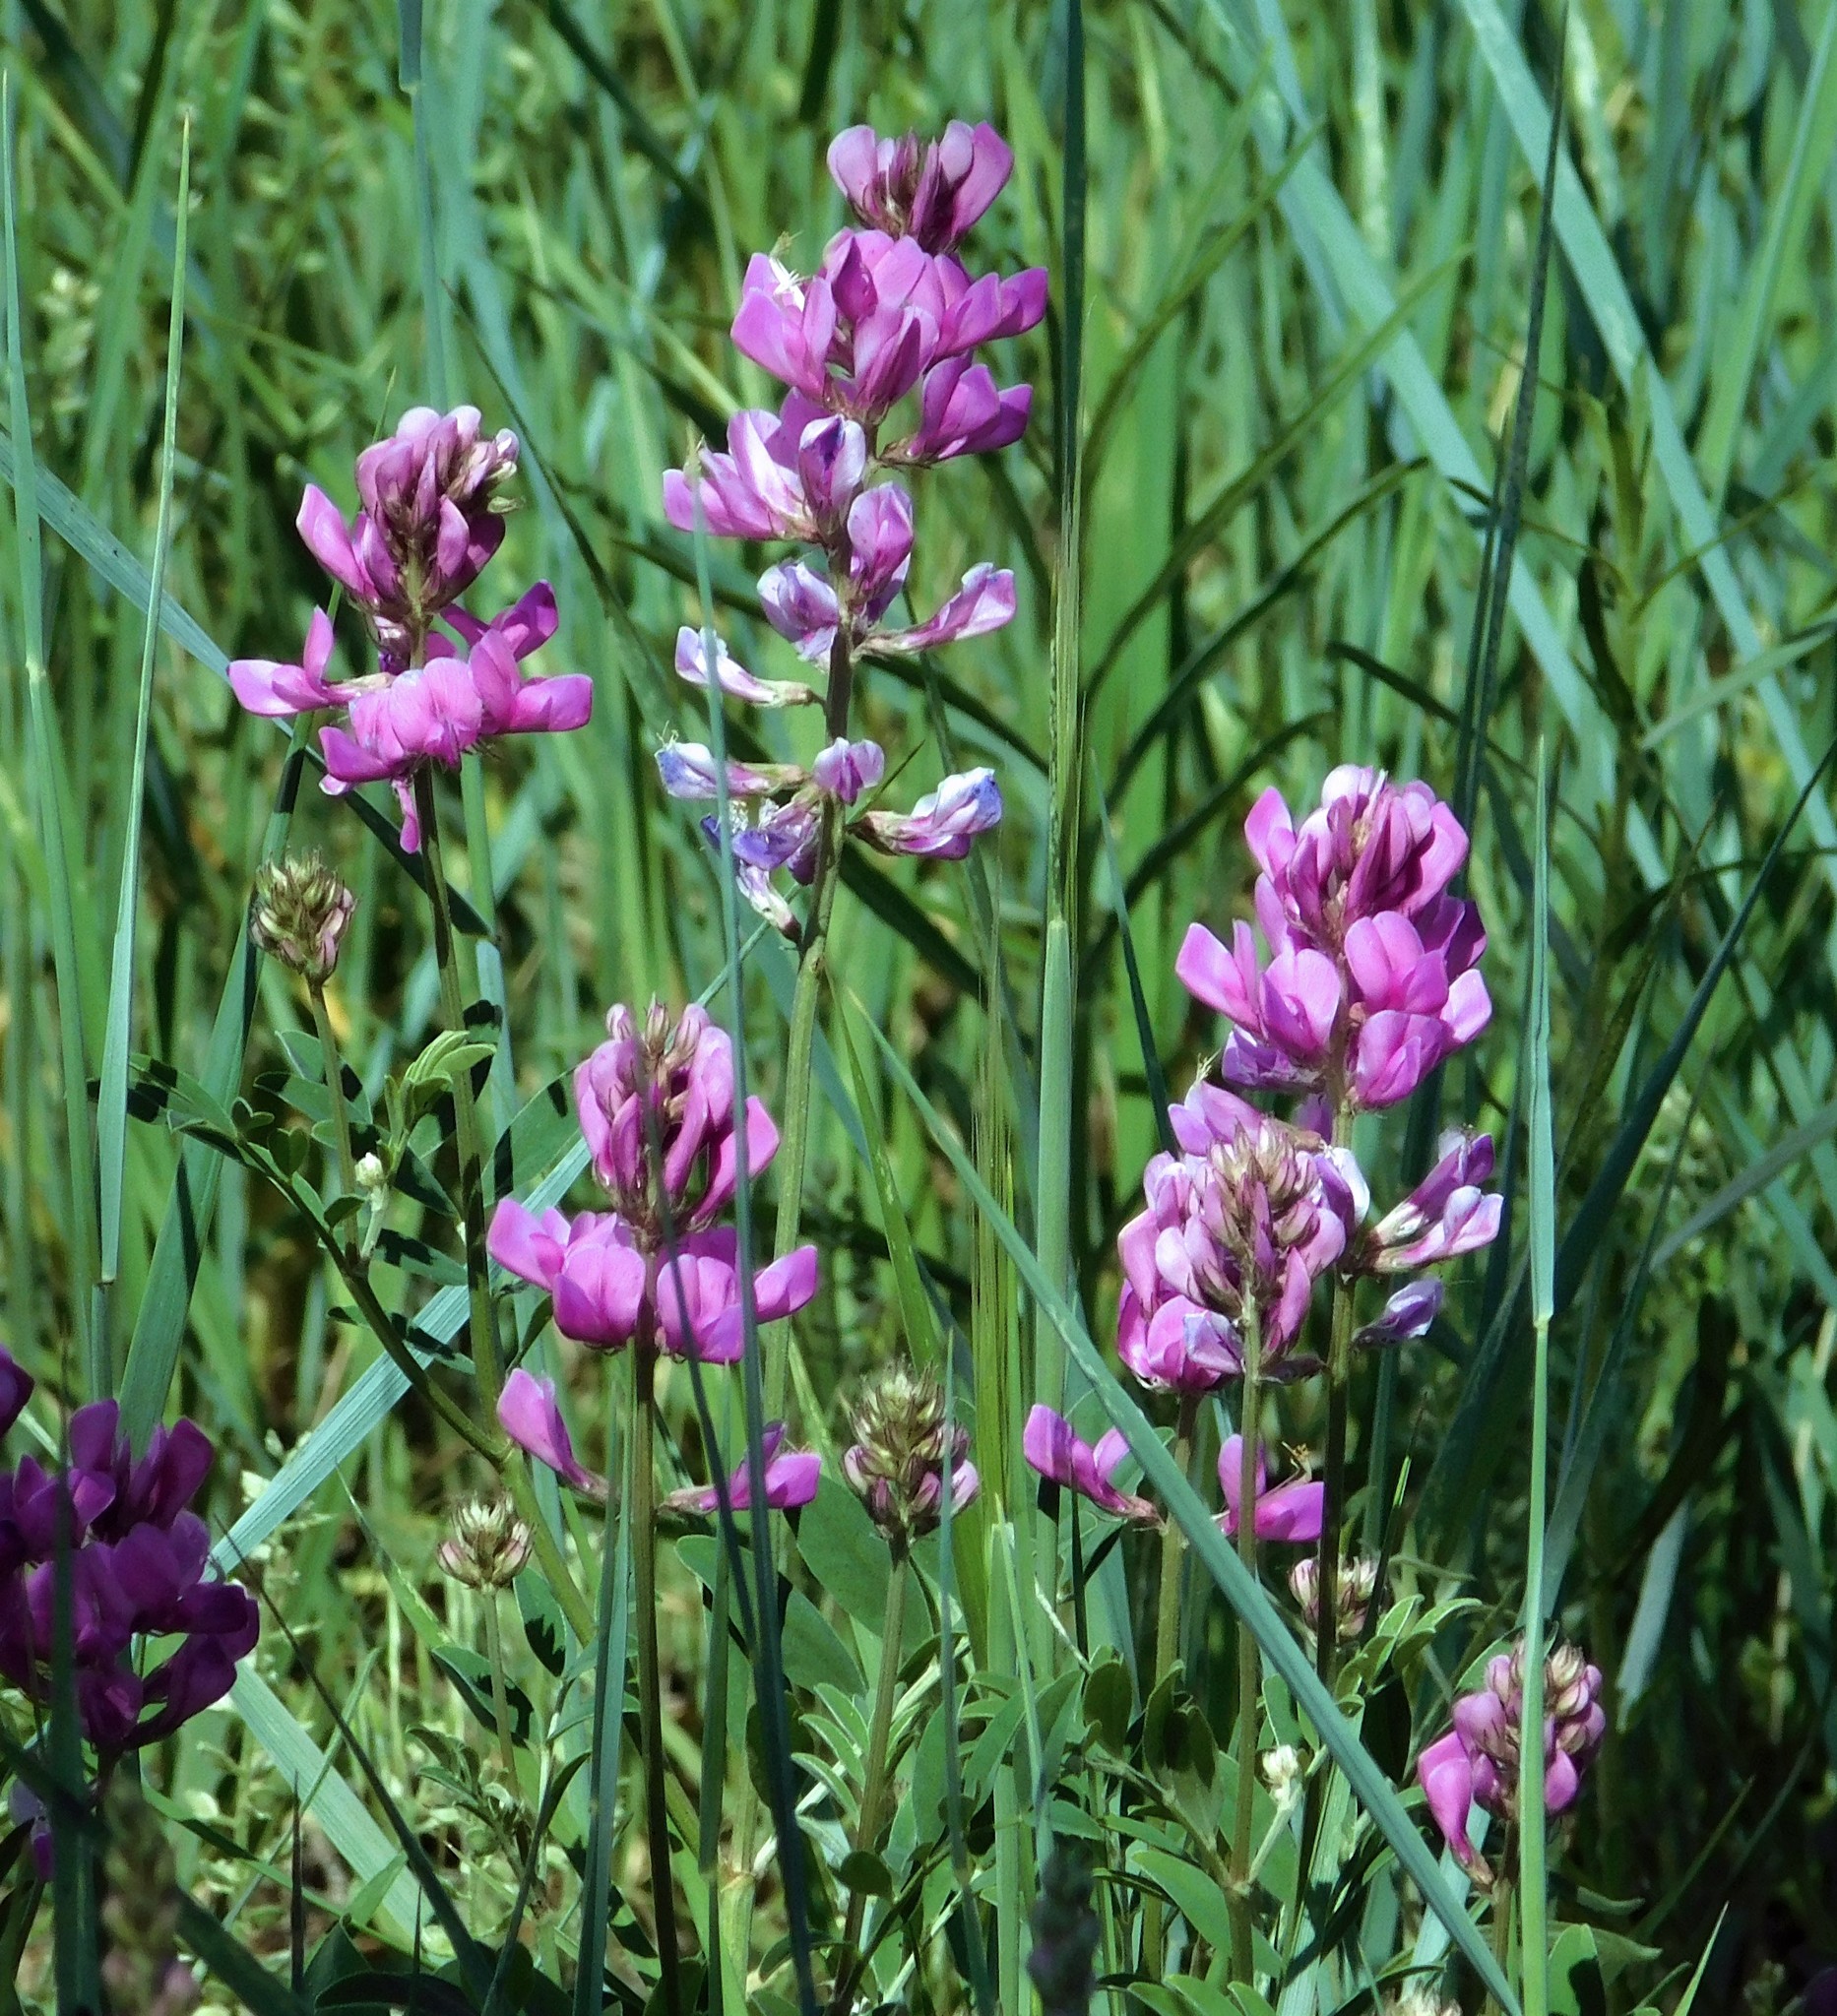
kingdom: Plantae
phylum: Tracheophyta
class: Magnoliopsida
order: Fabales
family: Fabaceae
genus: Hedysarum
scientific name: Hedysarum boreale
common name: Northern sweet-vetch
